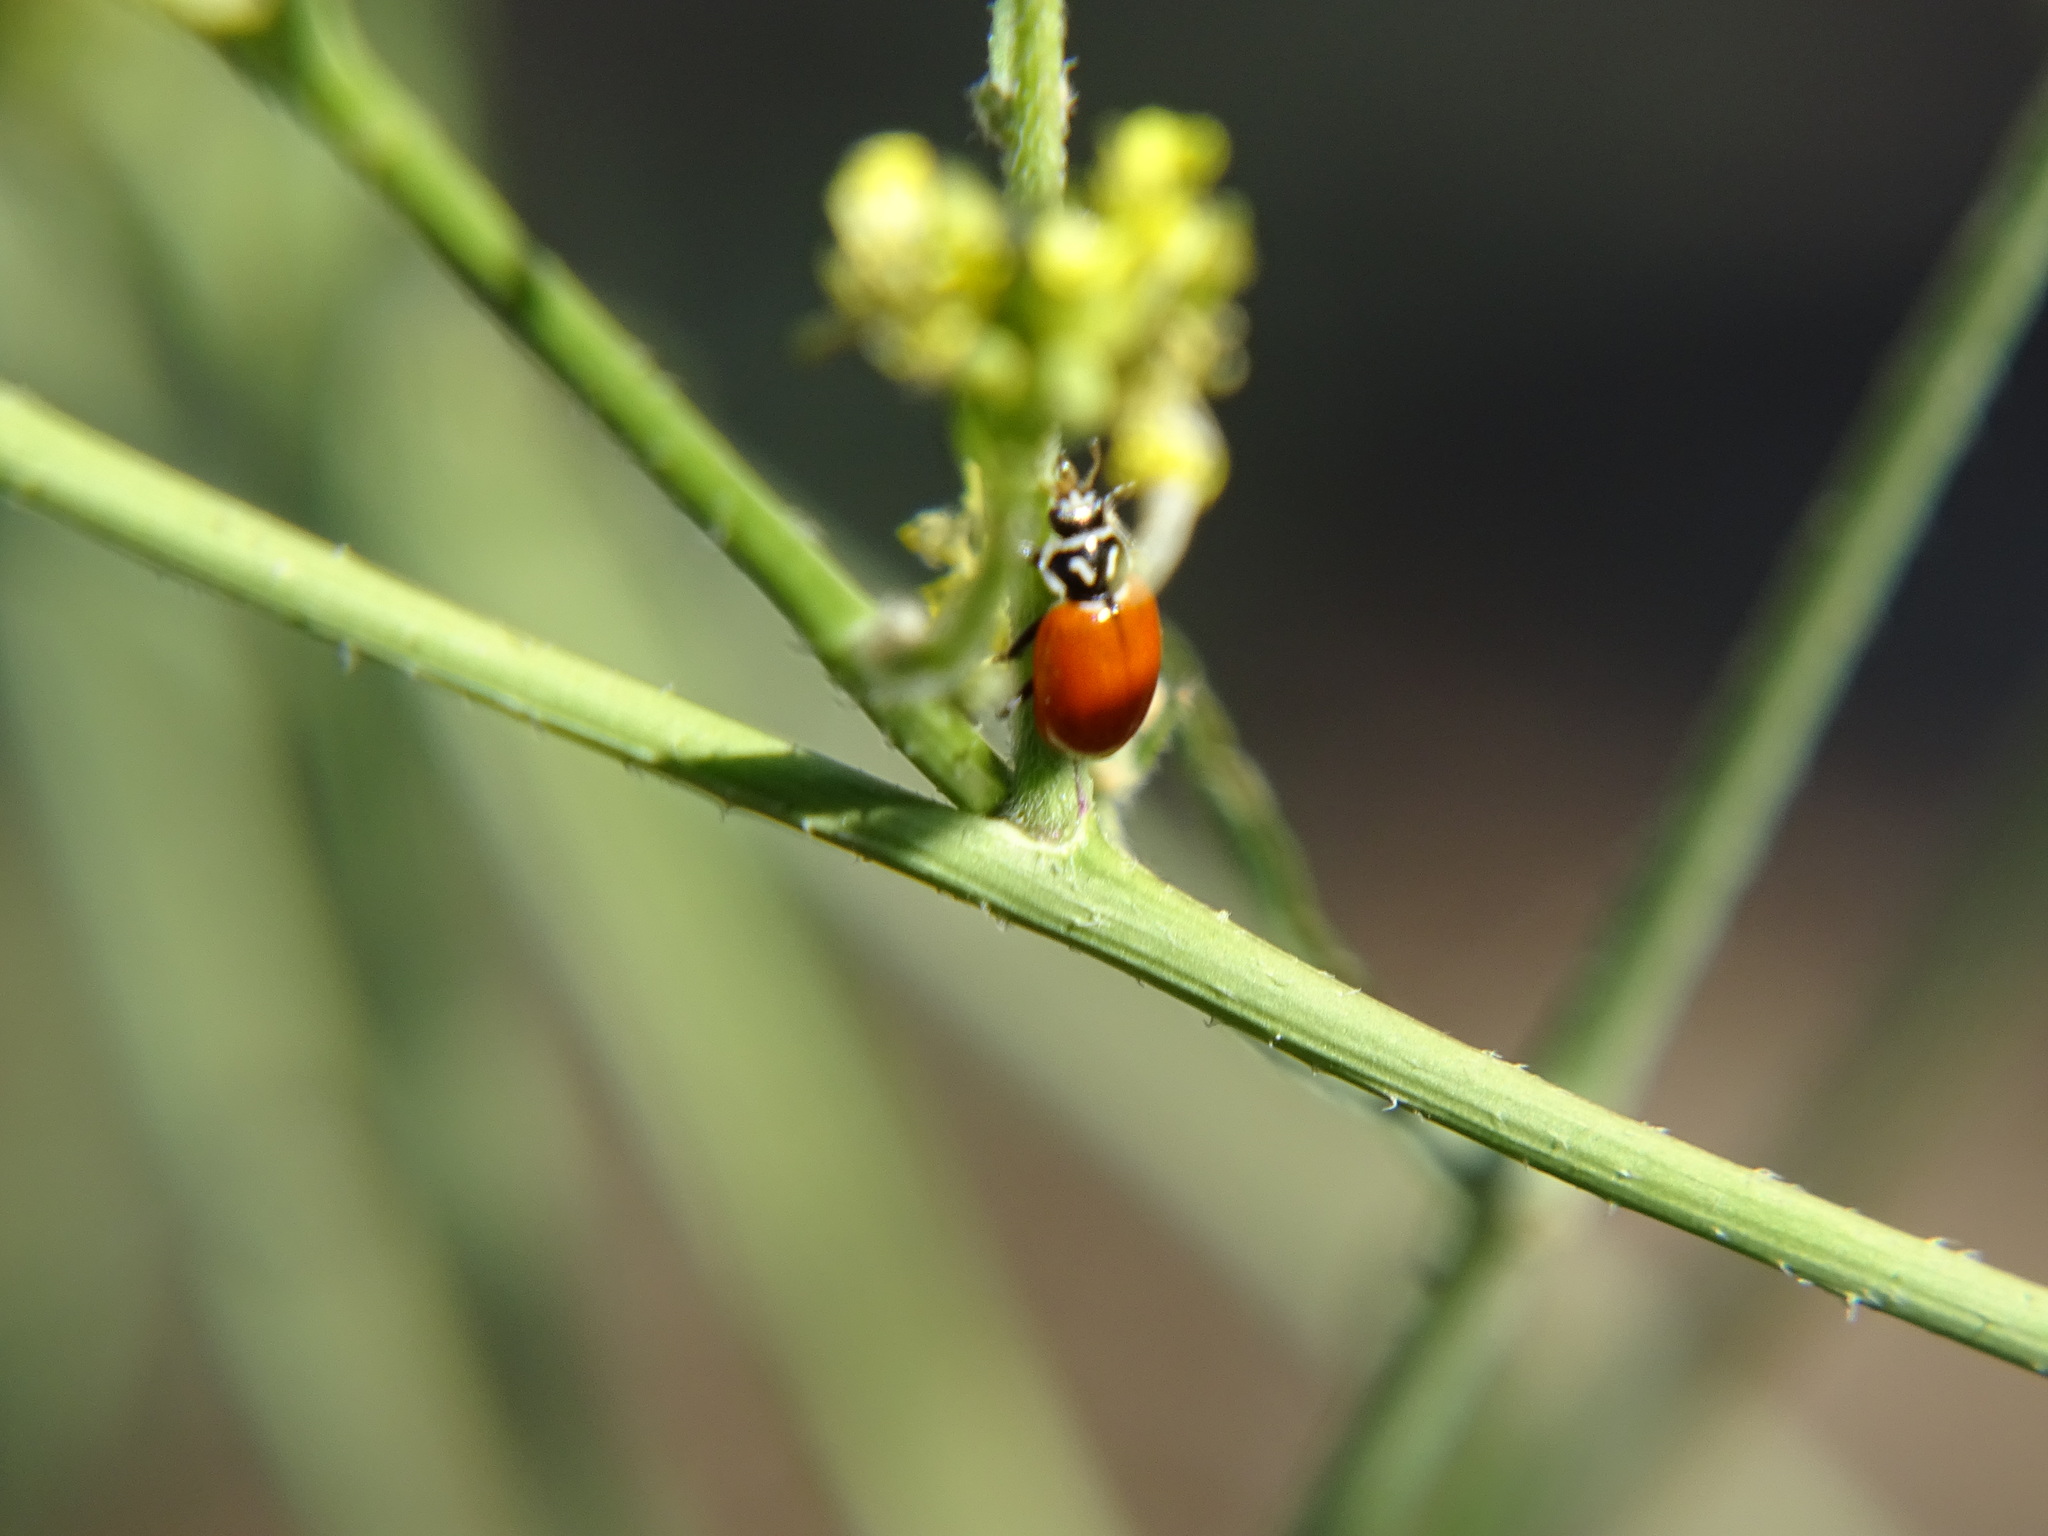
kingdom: Animalia
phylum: Arthropoda
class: Insecta
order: Coleoptera
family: Coccinellidae
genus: Hippodamia
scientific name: Hippodamia convergens
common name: Convergent lady beetle
